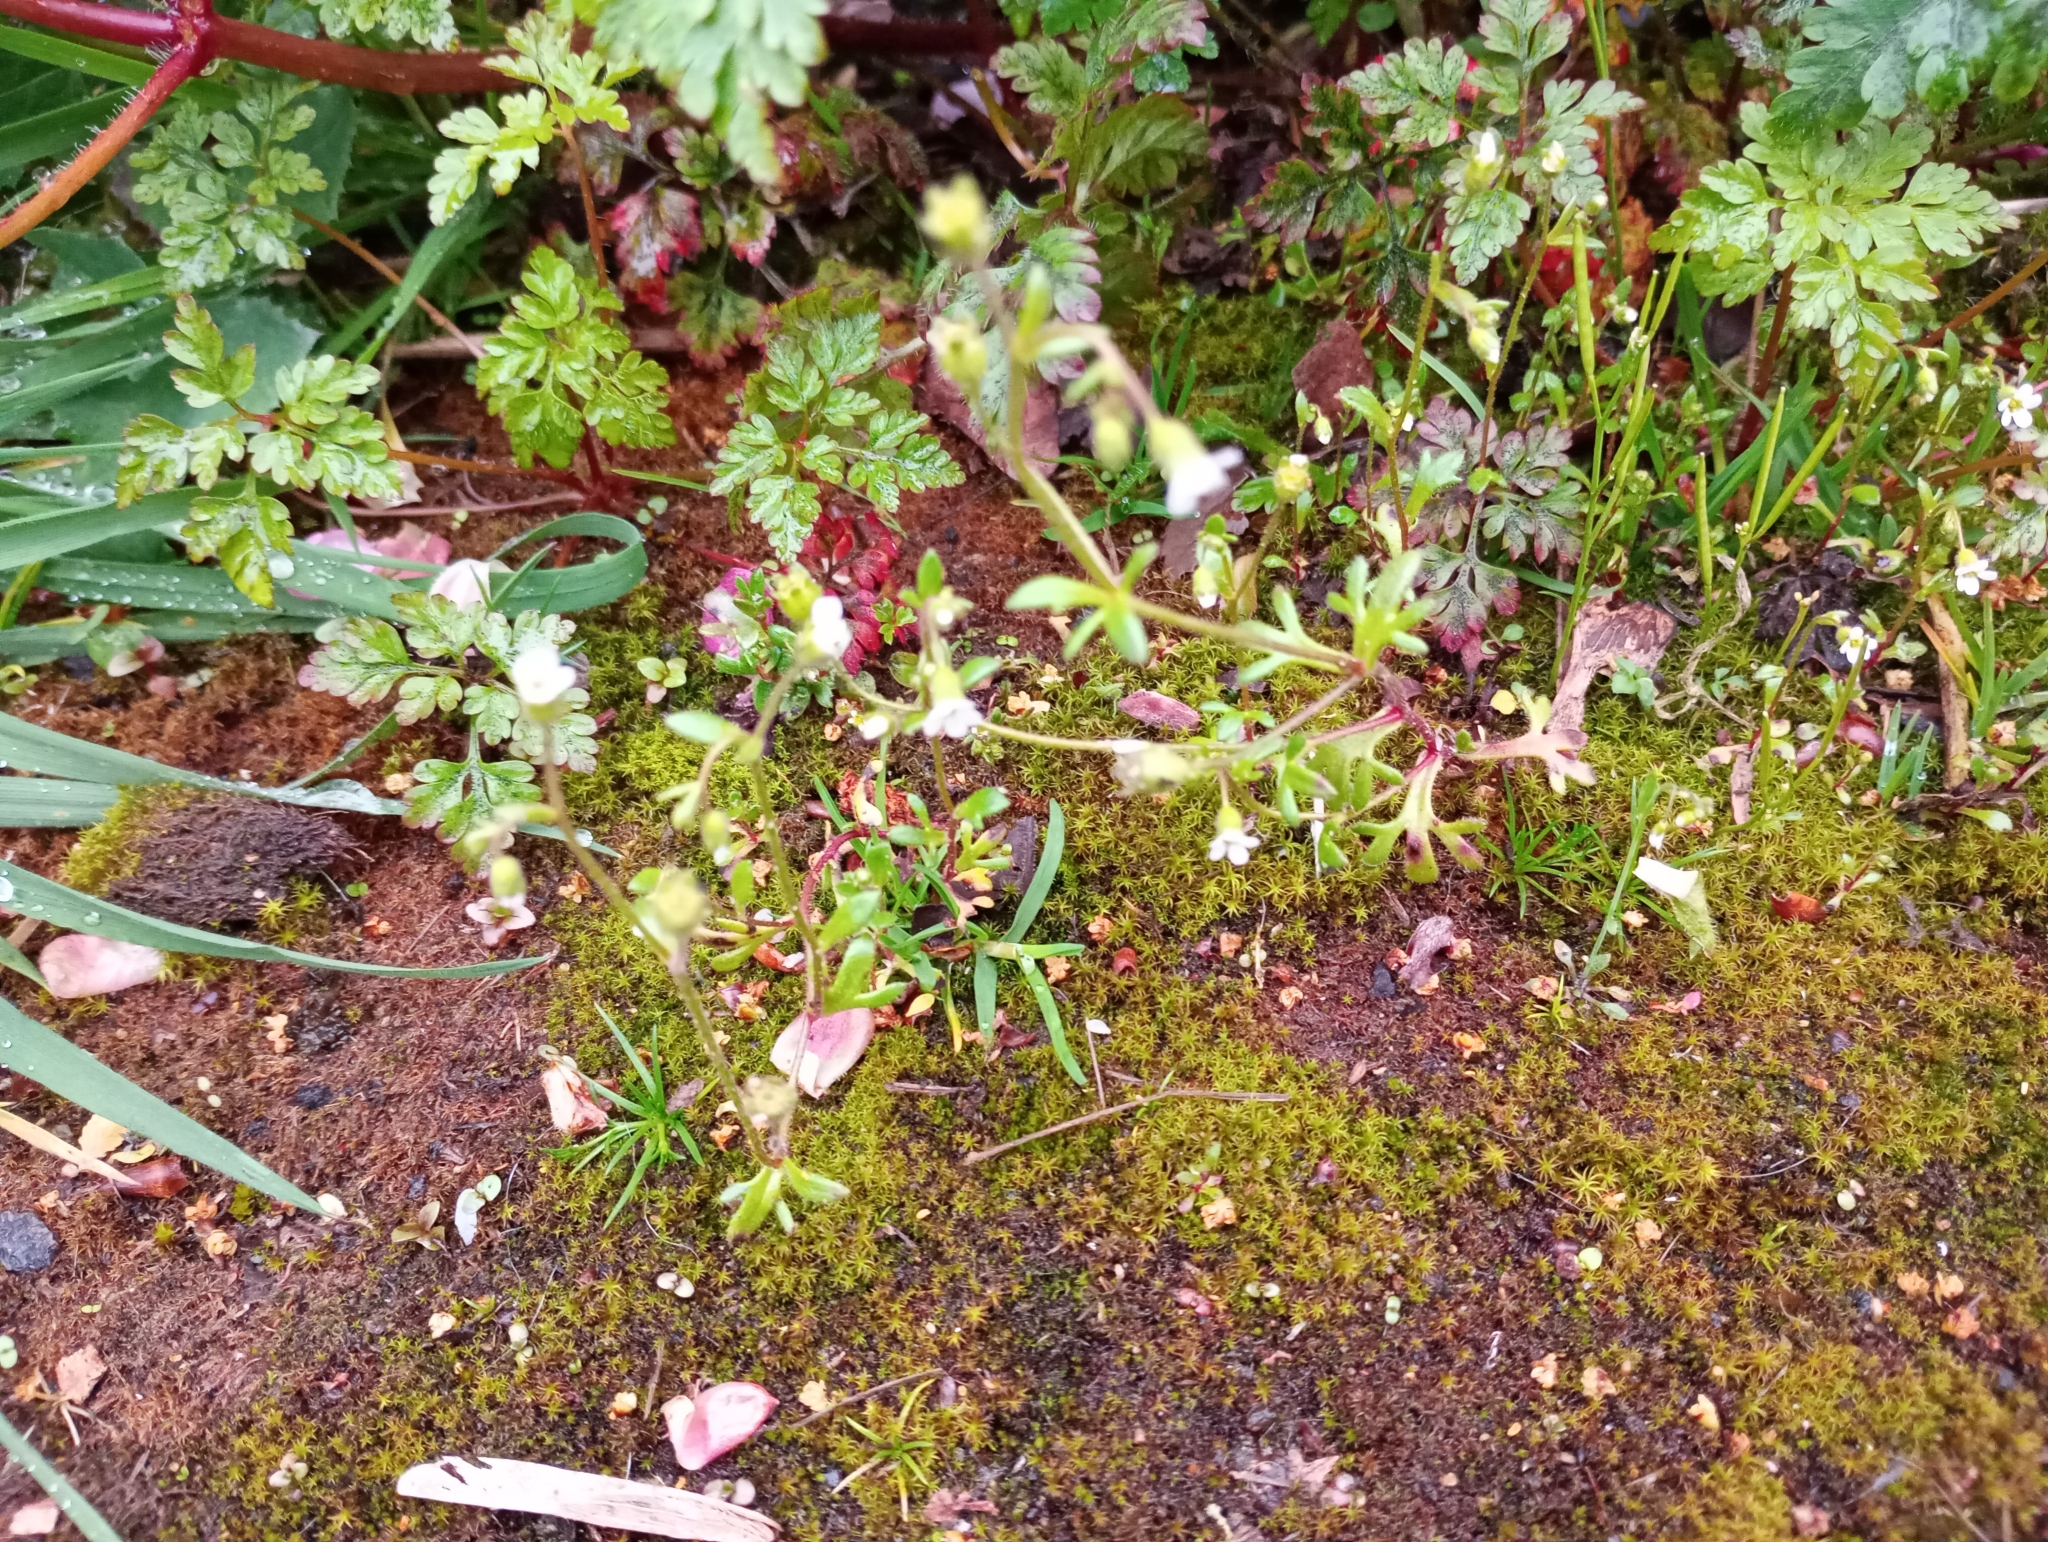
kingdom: Plantae
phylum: Tracheophyta
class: Magnoliopsida
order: Saxifragales
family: Saxifragaceae
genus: Saxifraga
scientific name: Saxifraga tridactylites
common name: Rue-leaved saxifrage
